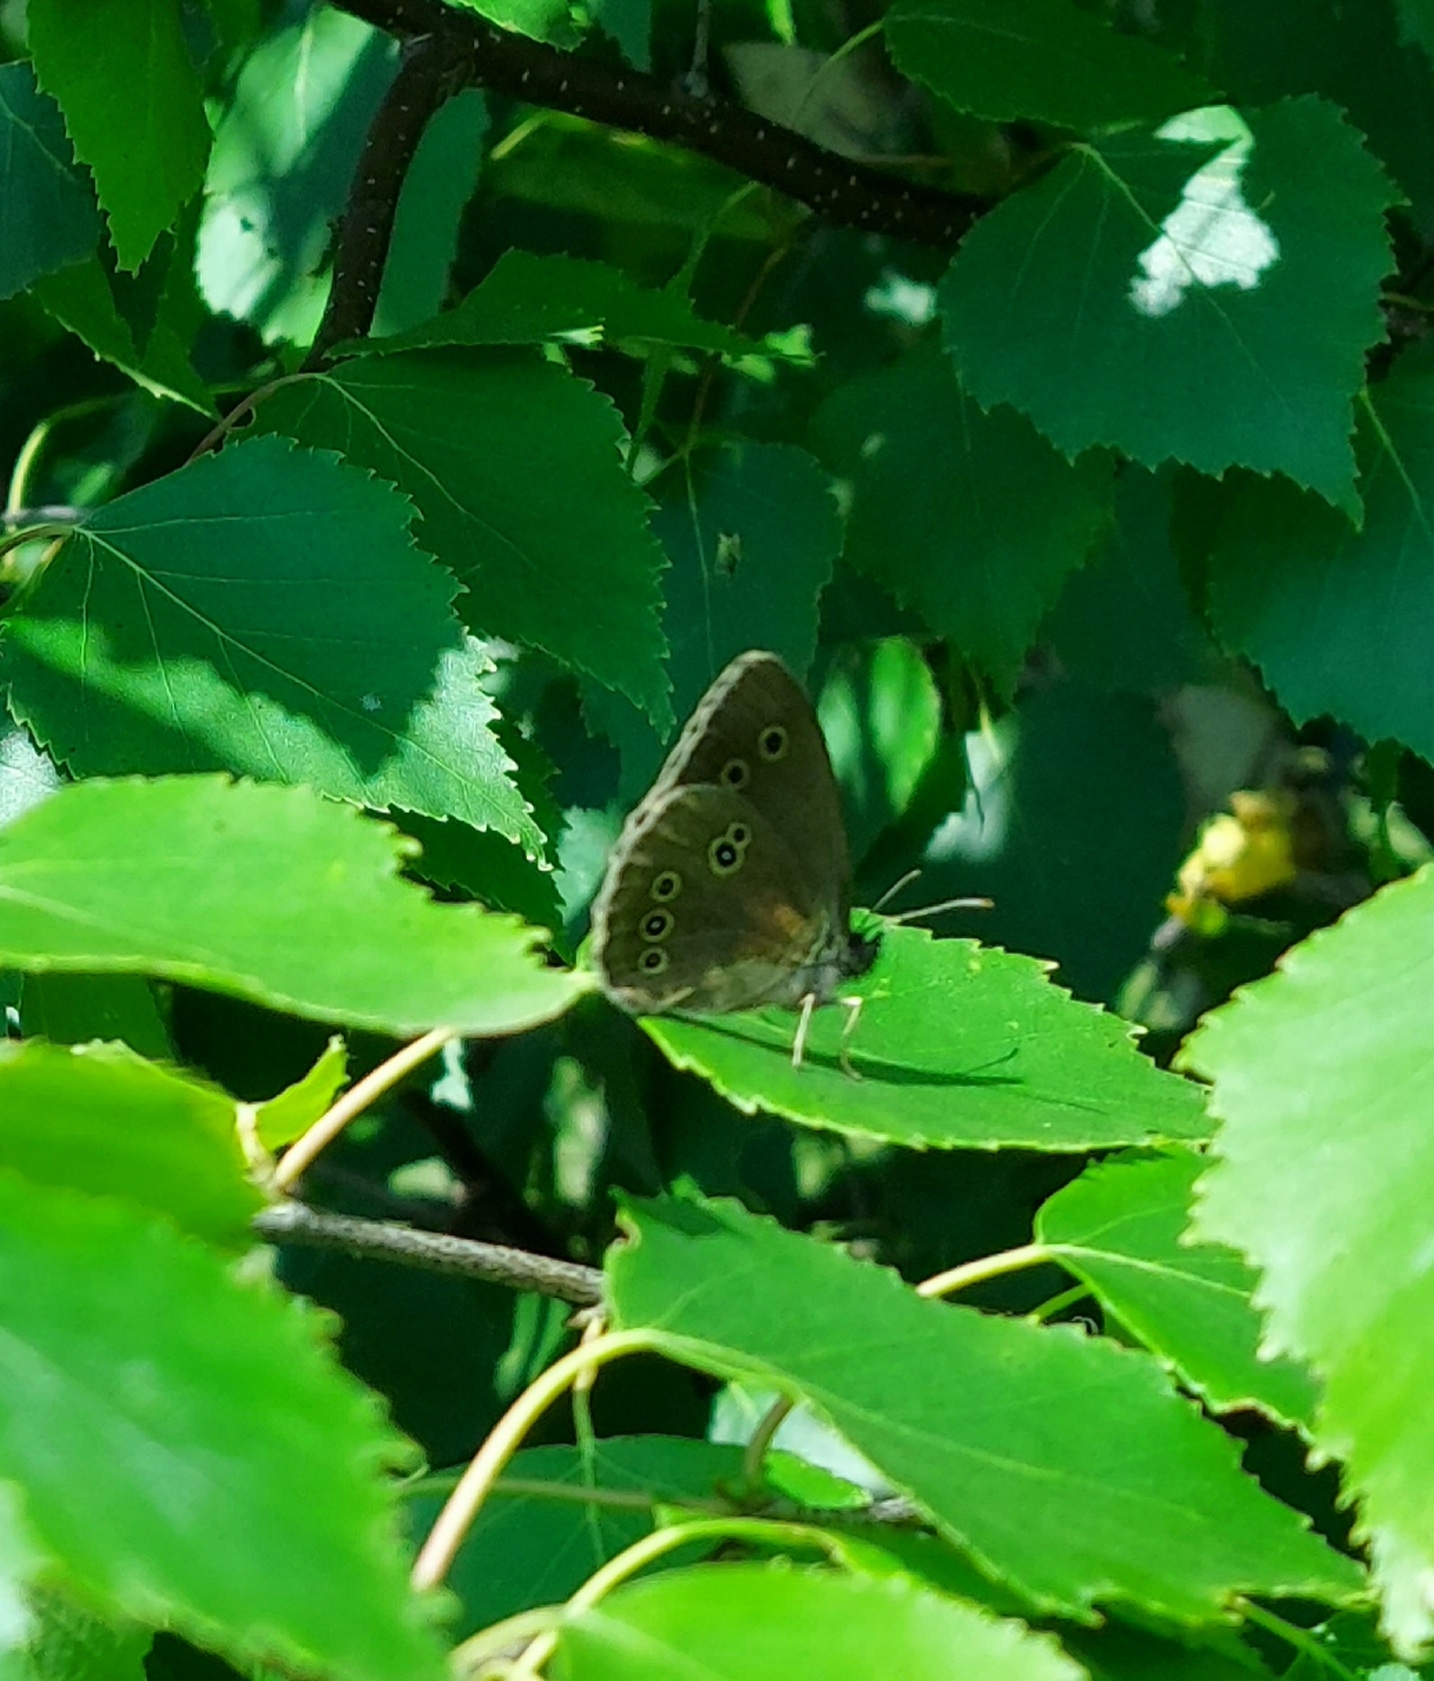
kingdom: Animalia
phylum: Arthropoda
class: Insecta
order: Lepidoptera
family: Nymphalidae
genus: Aphantopus
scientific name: Aphantopus hyperantus
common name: Ringlet
